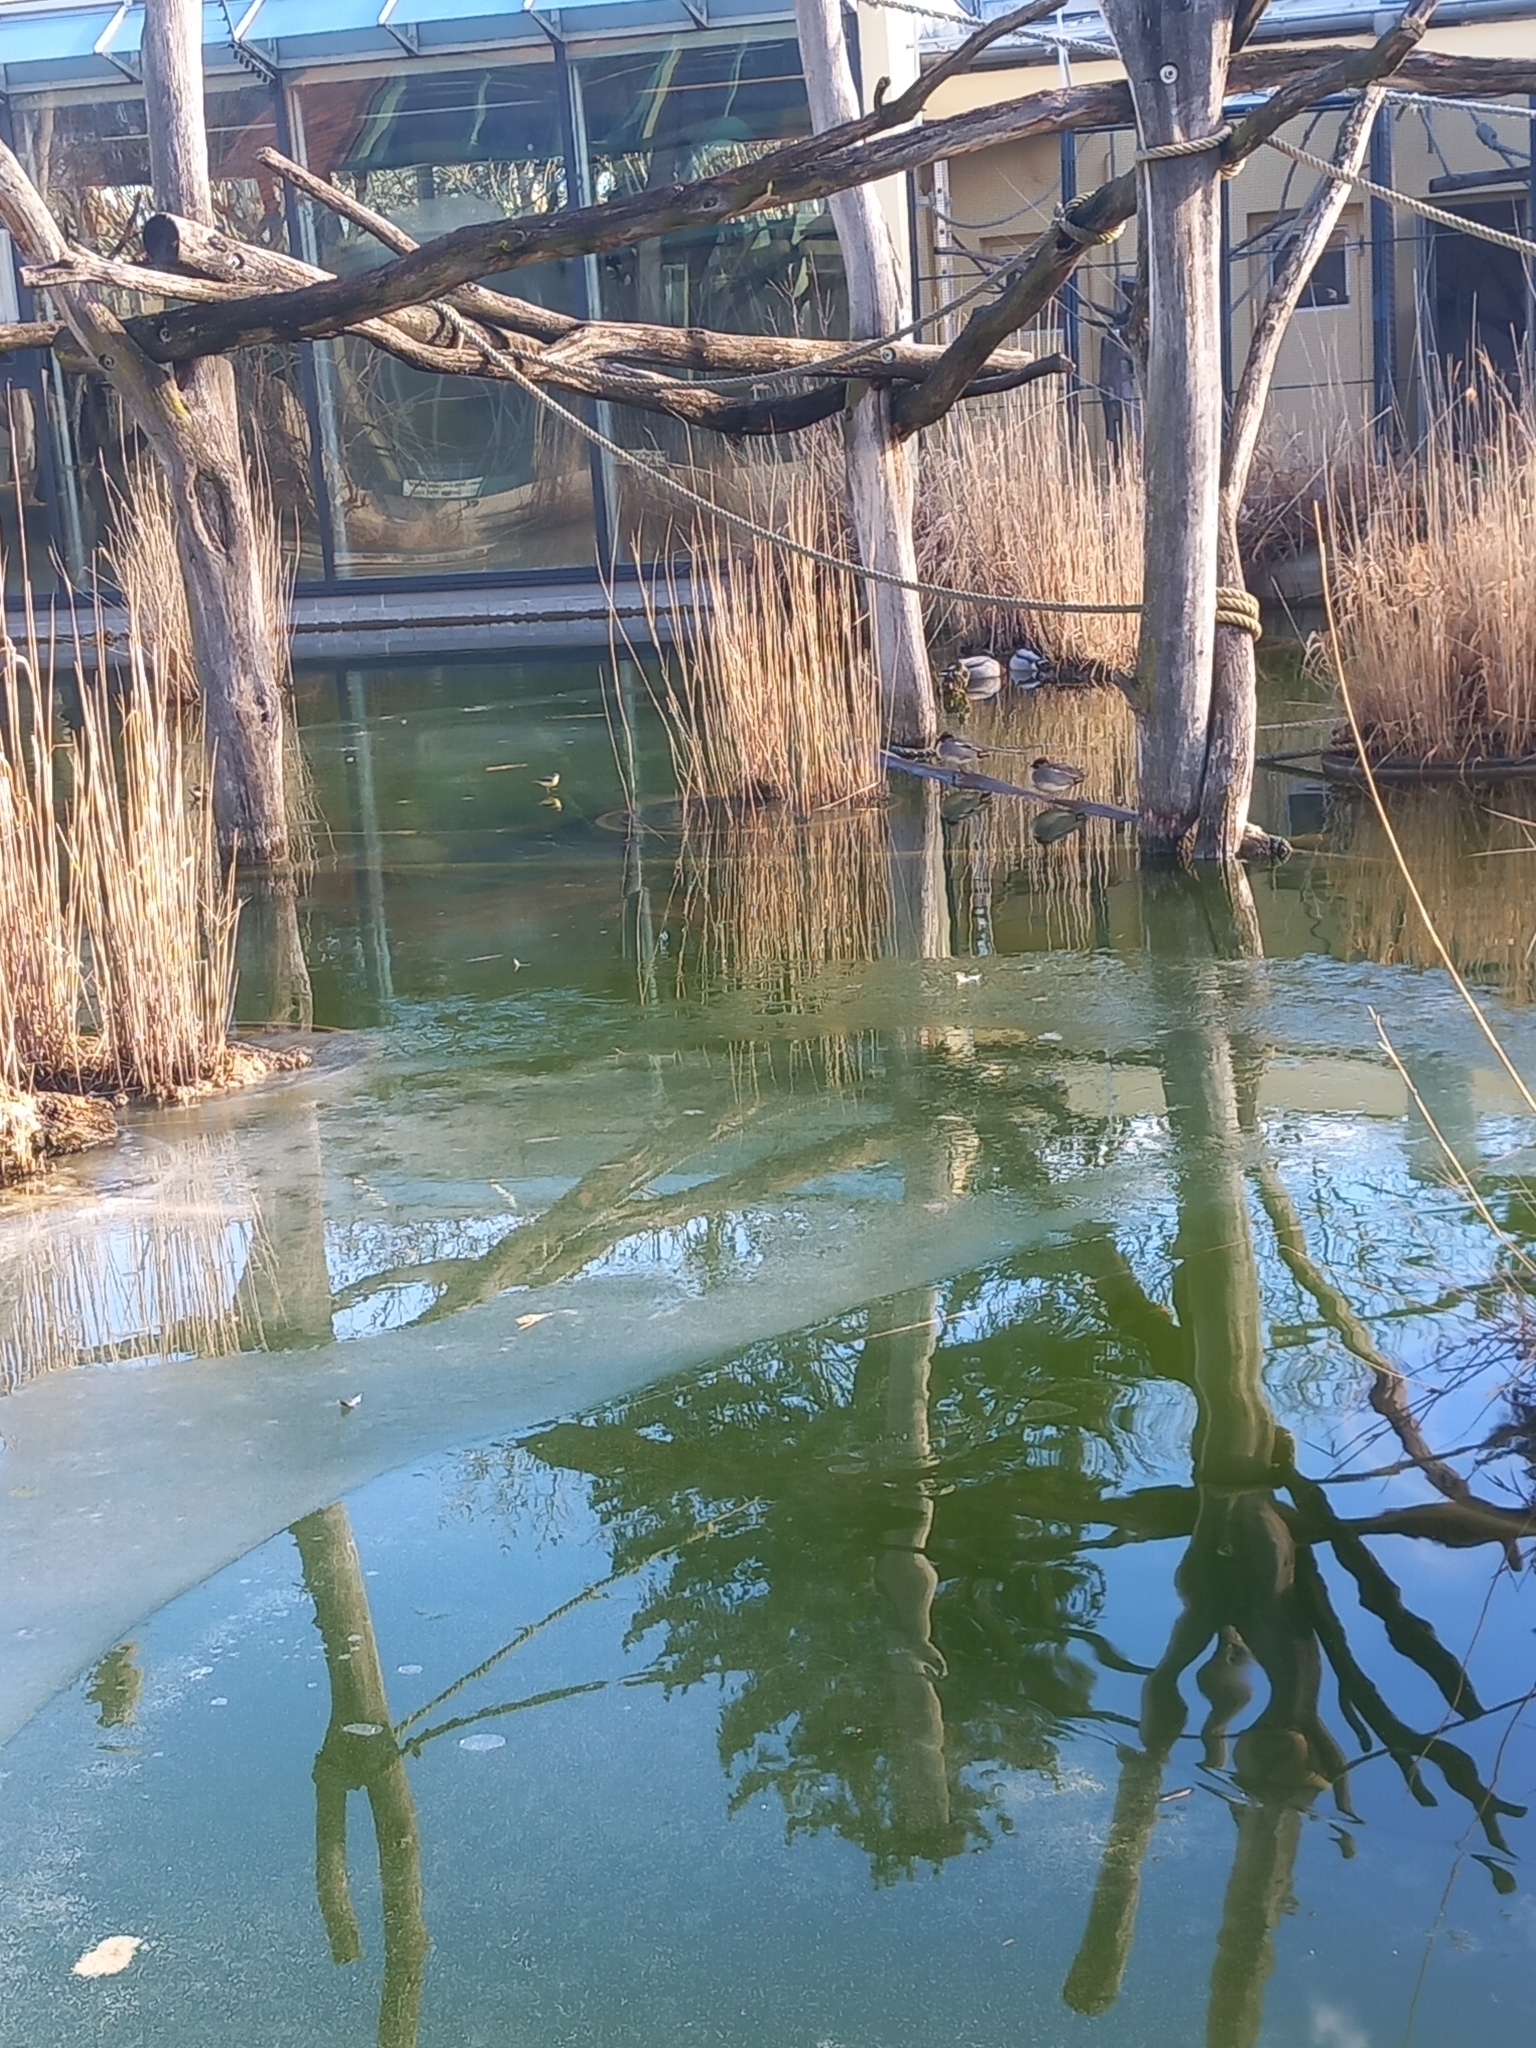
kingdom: Animalia
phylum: Chordata
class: Aves
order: Anseriformes
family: Anatidae
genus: Anas
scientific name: Anas crecca
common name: Eurasian teal
